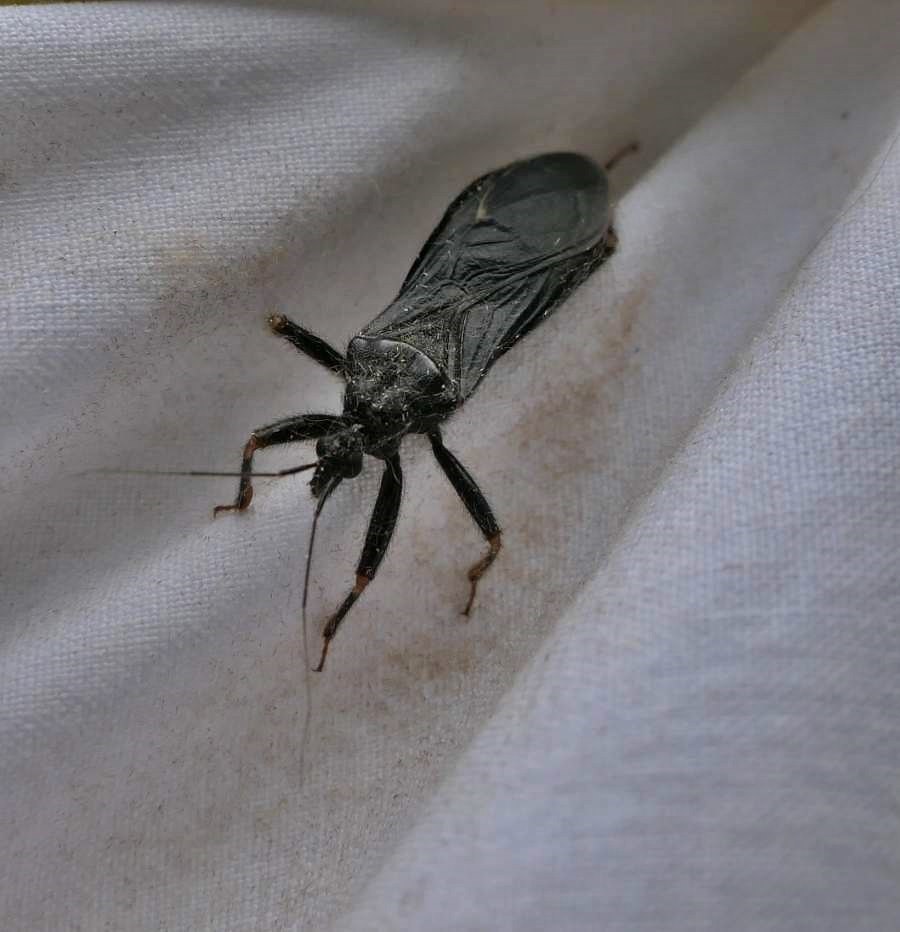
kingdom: Animalia
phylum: Arthropoda
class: Insecta
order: Hemiptera
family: Reduviidae
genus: Reduvius
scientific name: Reduvius personatus
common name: Masked hunter
